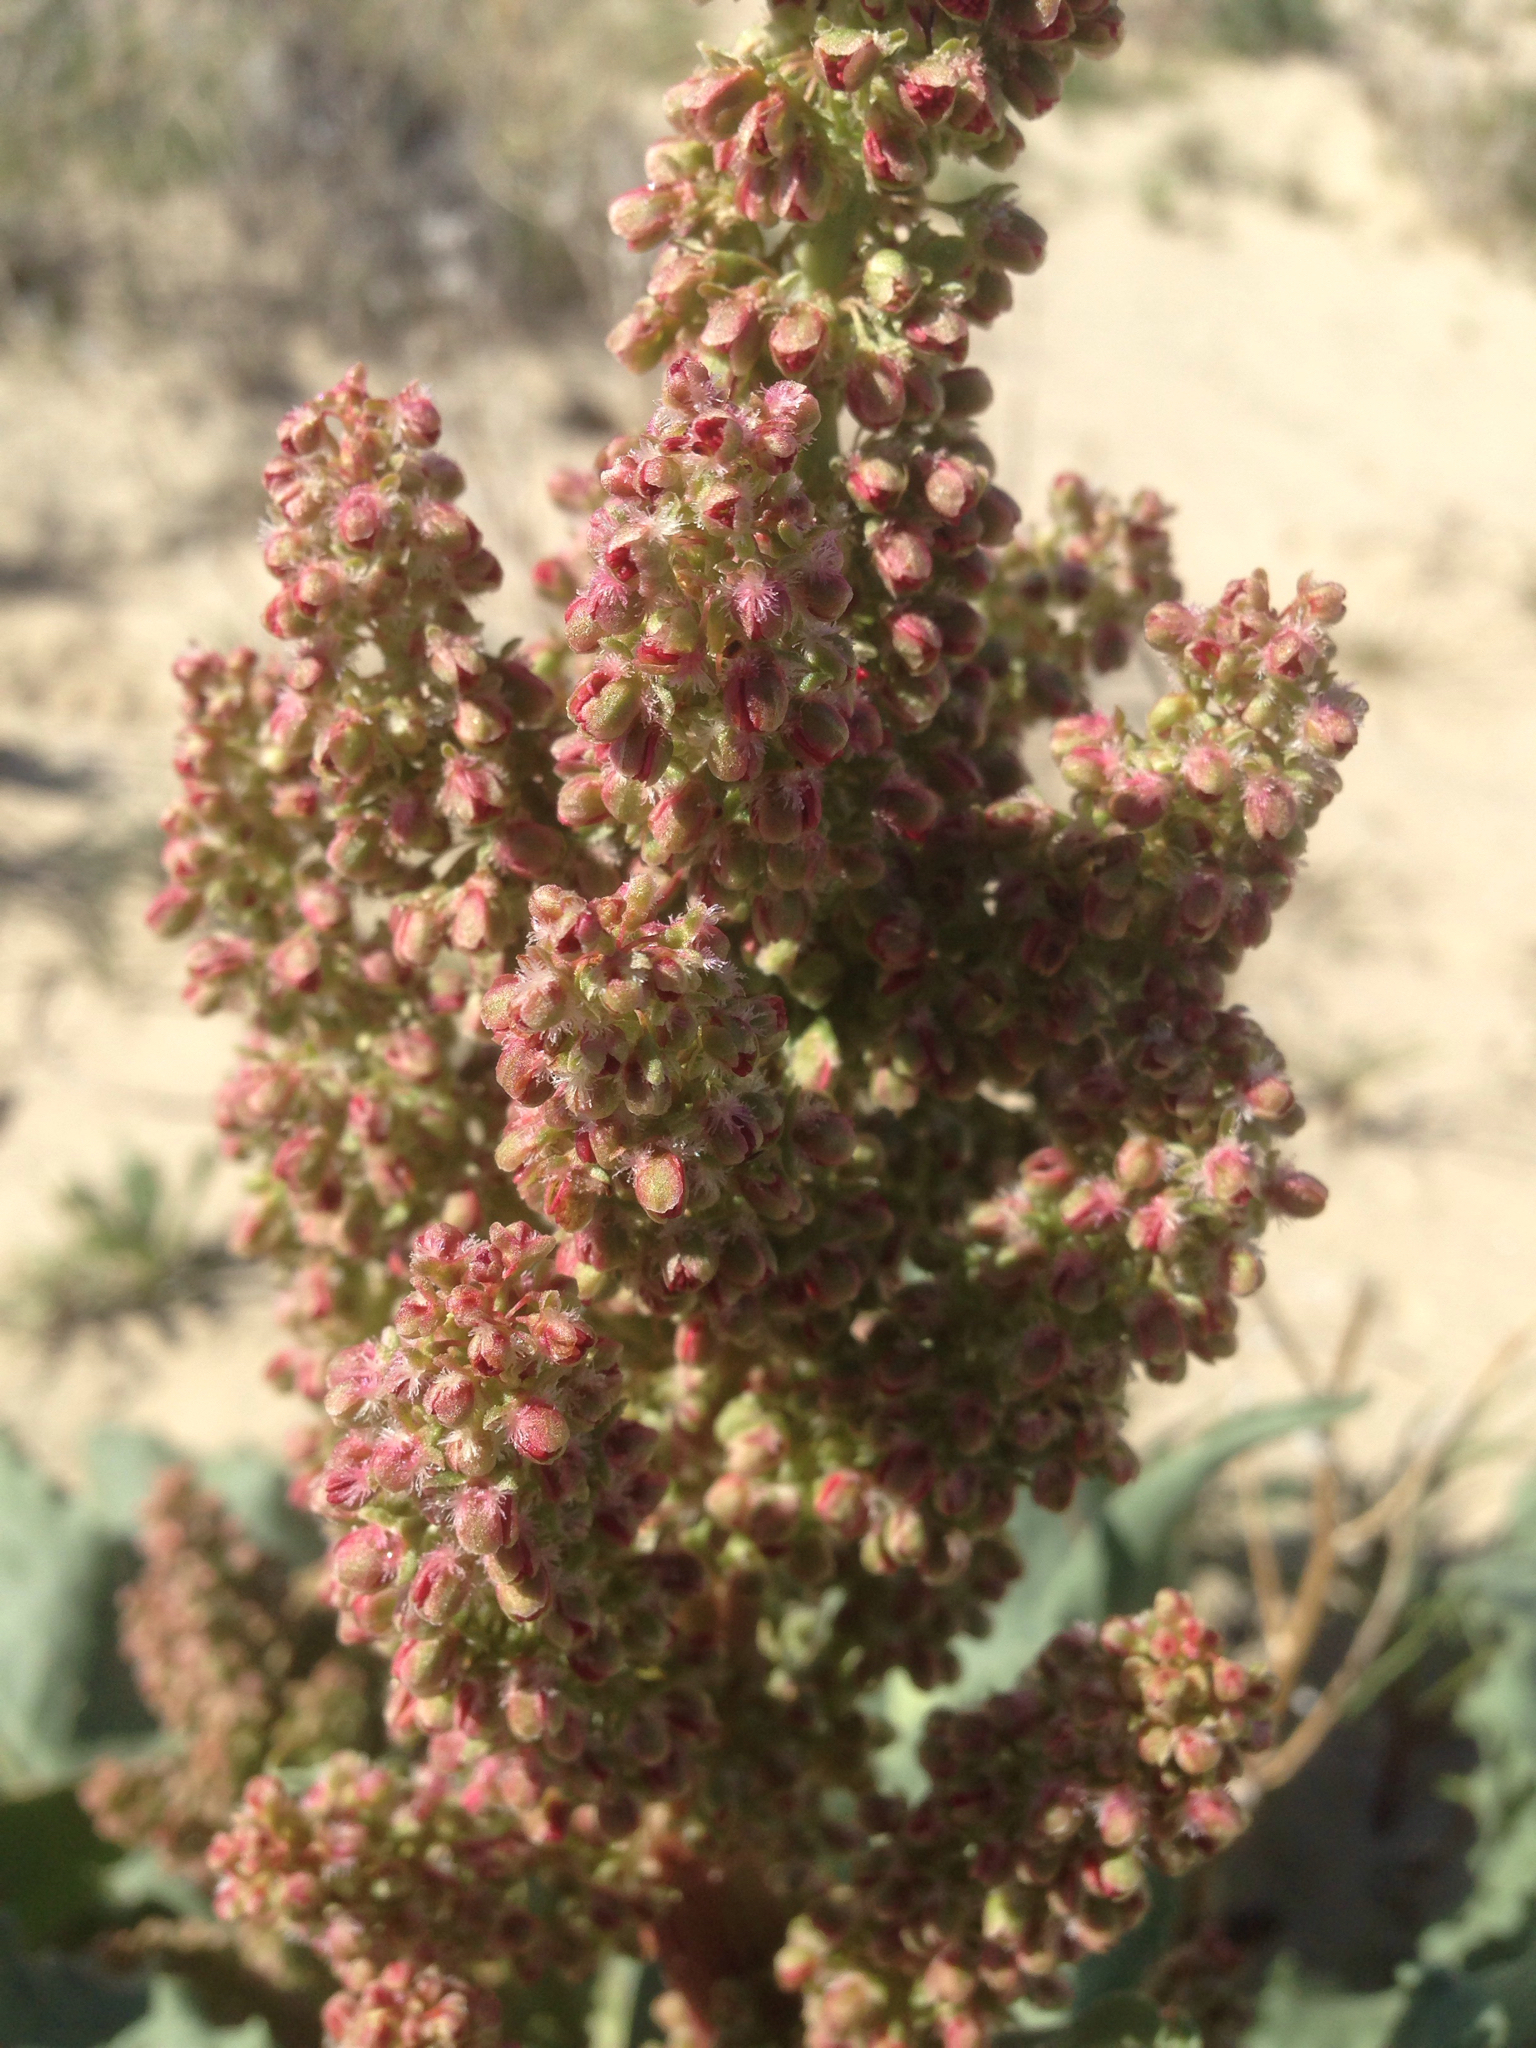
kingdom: Plantae
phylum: Tracheophyta
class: Magnoliopsida
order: Caryophyllales
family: Polygonaceae
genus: Rumex
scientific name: Rumex hymenosepalus
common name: Ganagra
